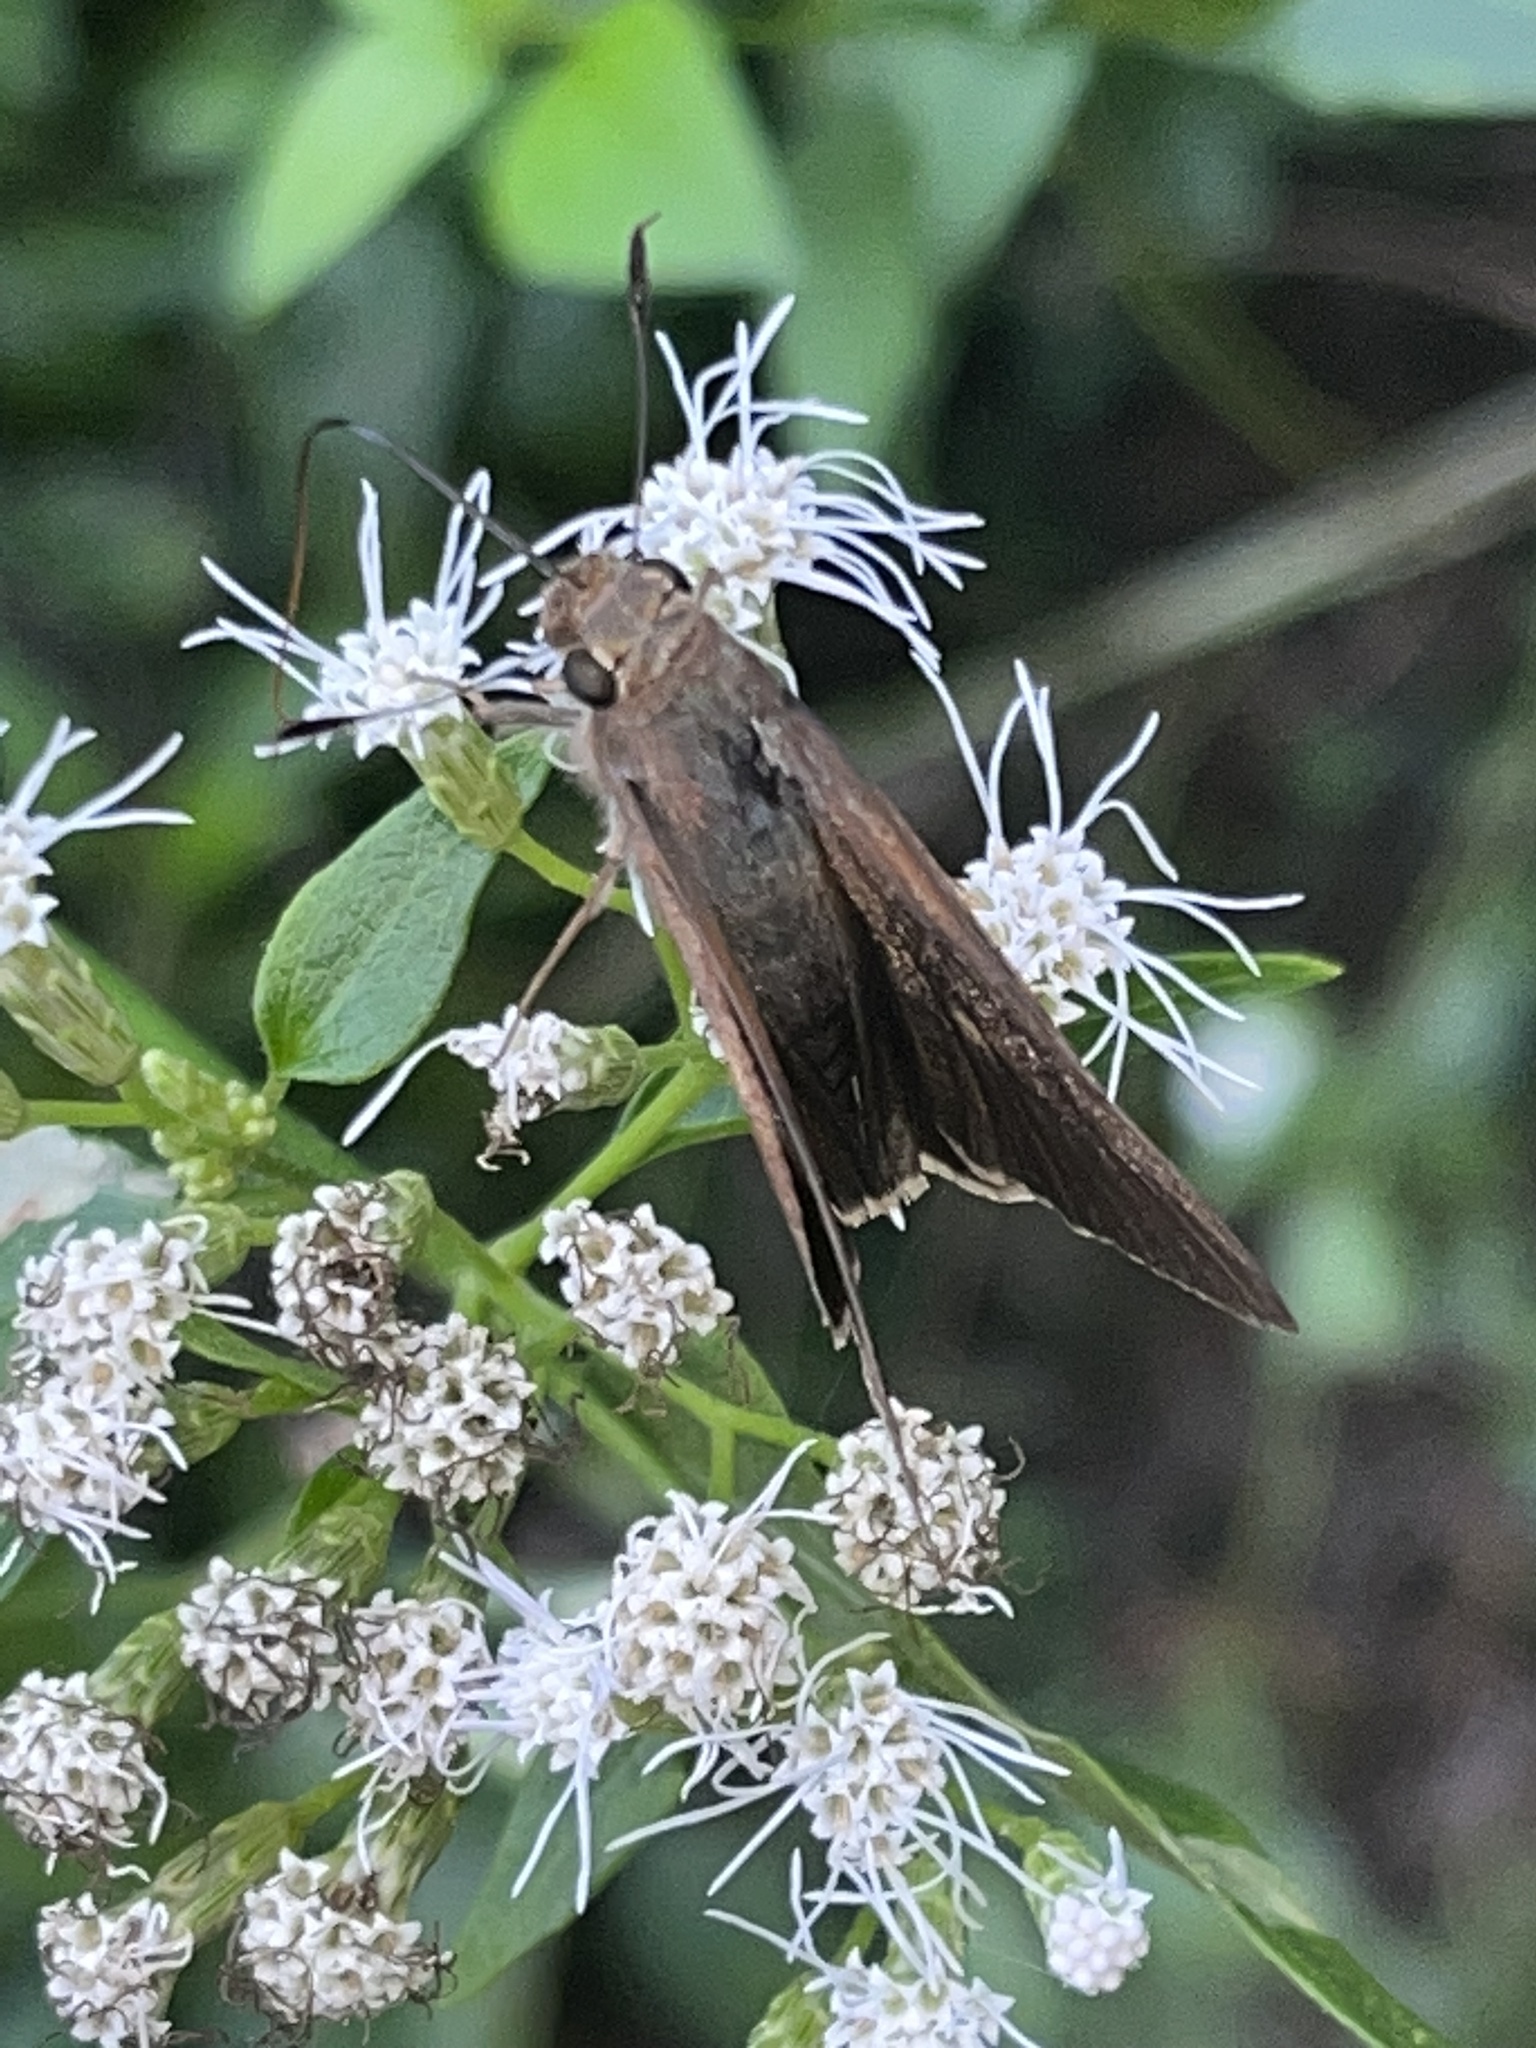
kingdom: Animalia
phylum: Arthropoda
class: Insecta
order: Lepidoptera
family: Hesperiidae
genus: Asbolis
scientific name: Asbolis capucinus
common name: Monk skipper
